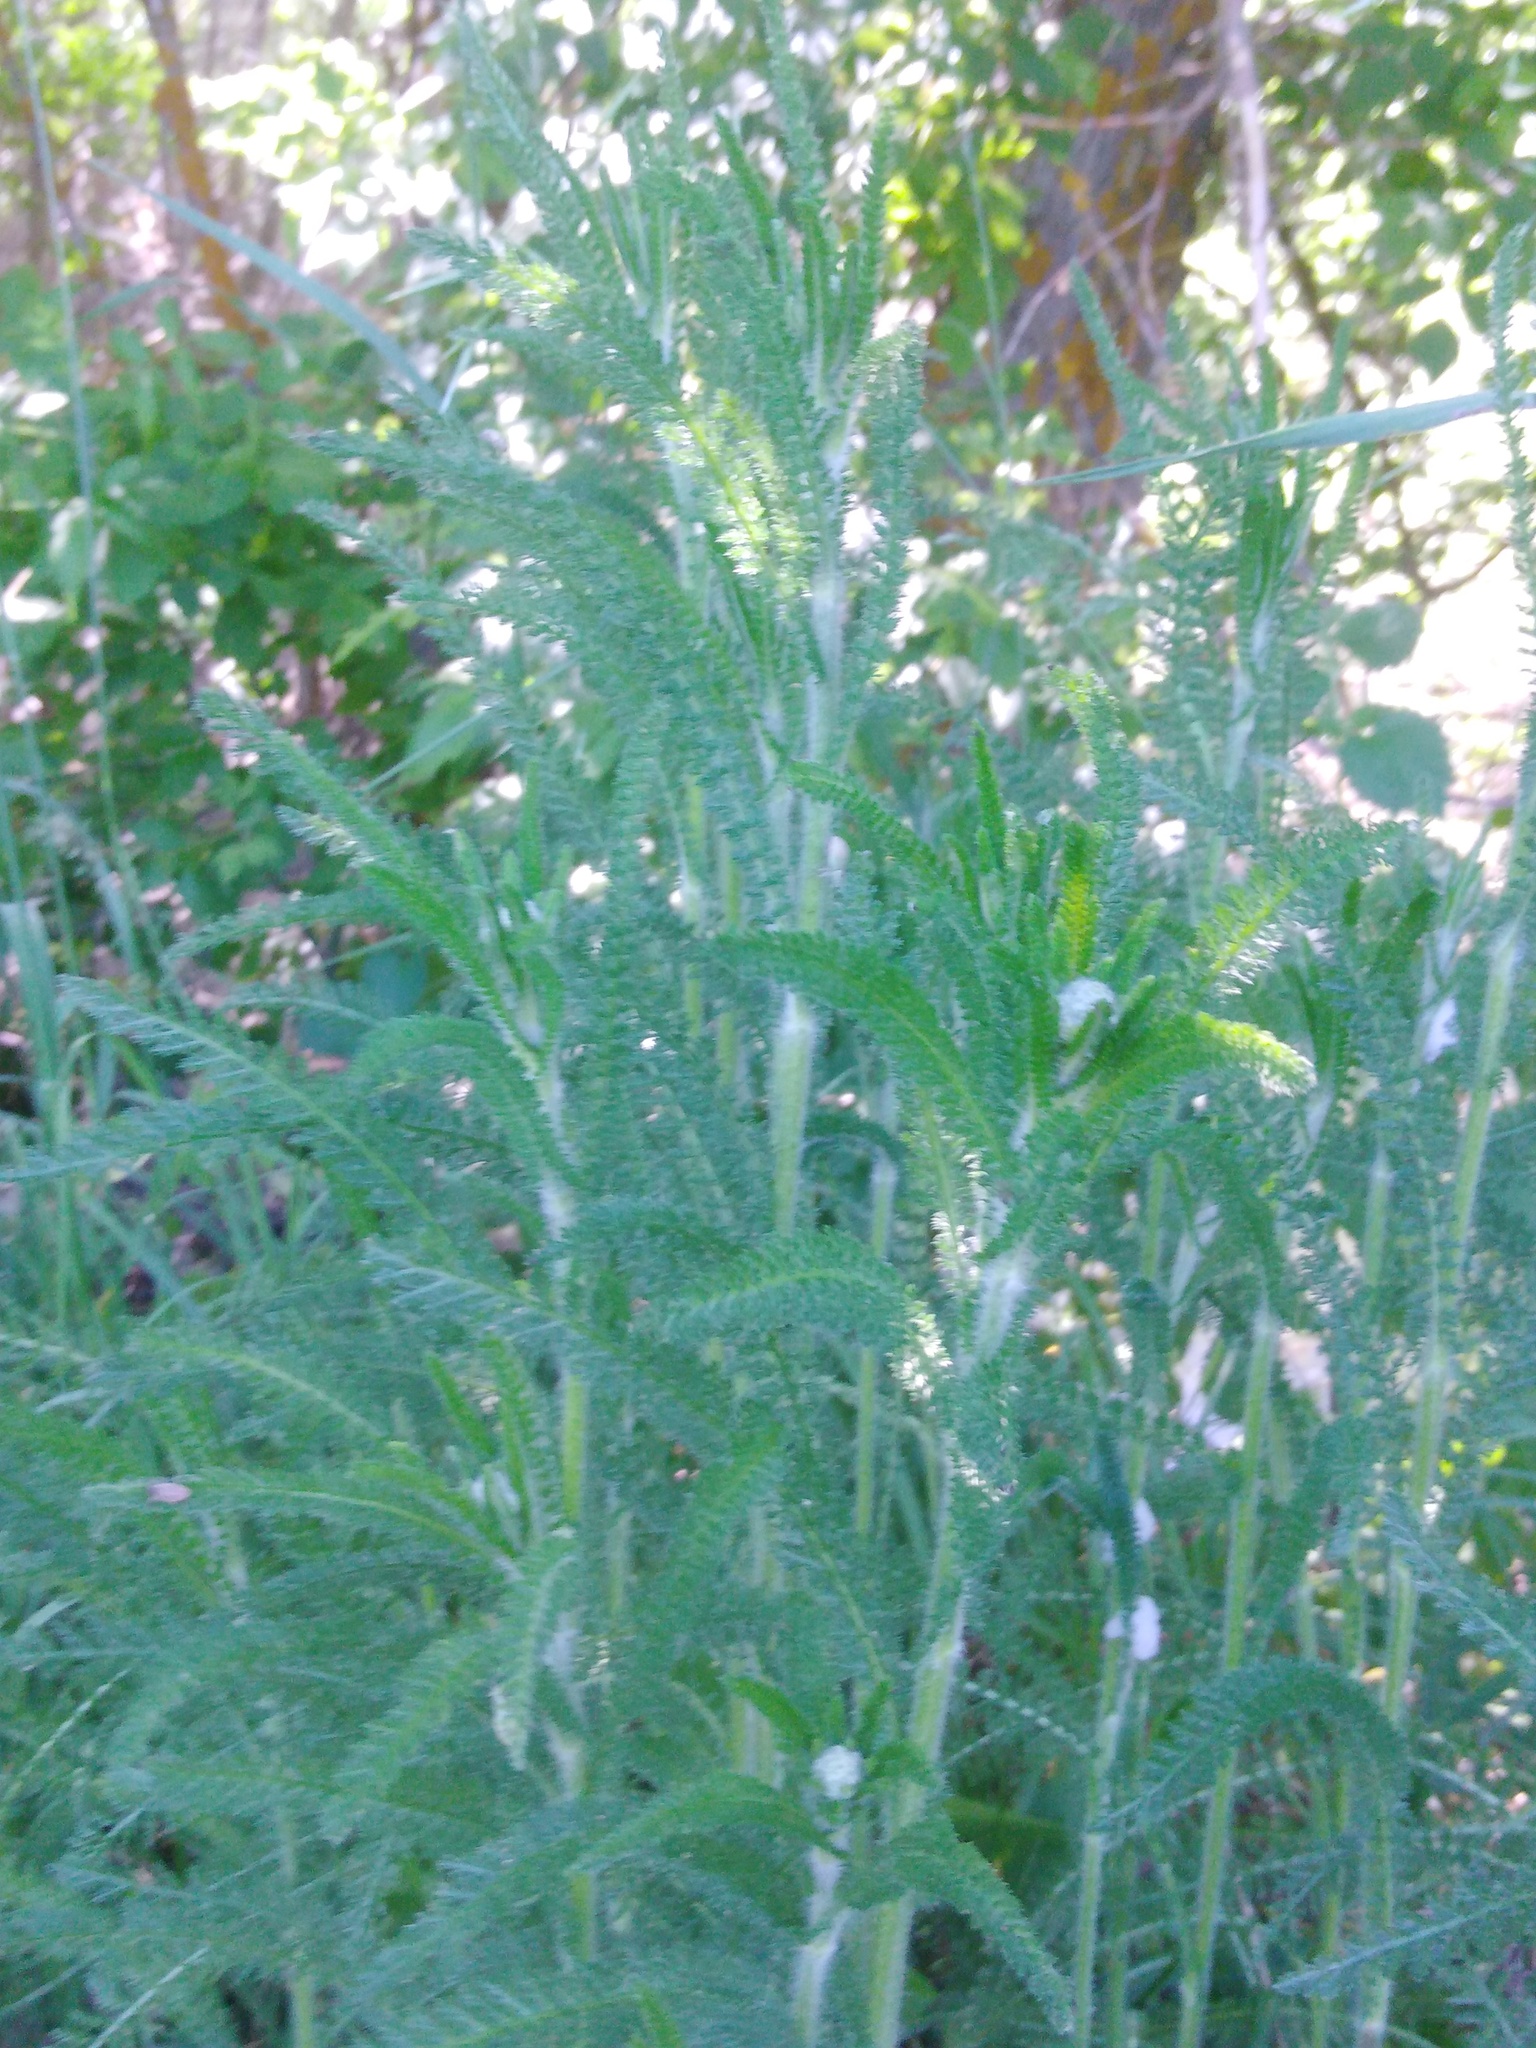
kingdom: Plantae
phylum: Tracheophyta
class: Magnoliopsida
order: Asterales
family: Asteraceae
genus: Achillea
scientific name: Achillea millefolium
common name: Yarrow
